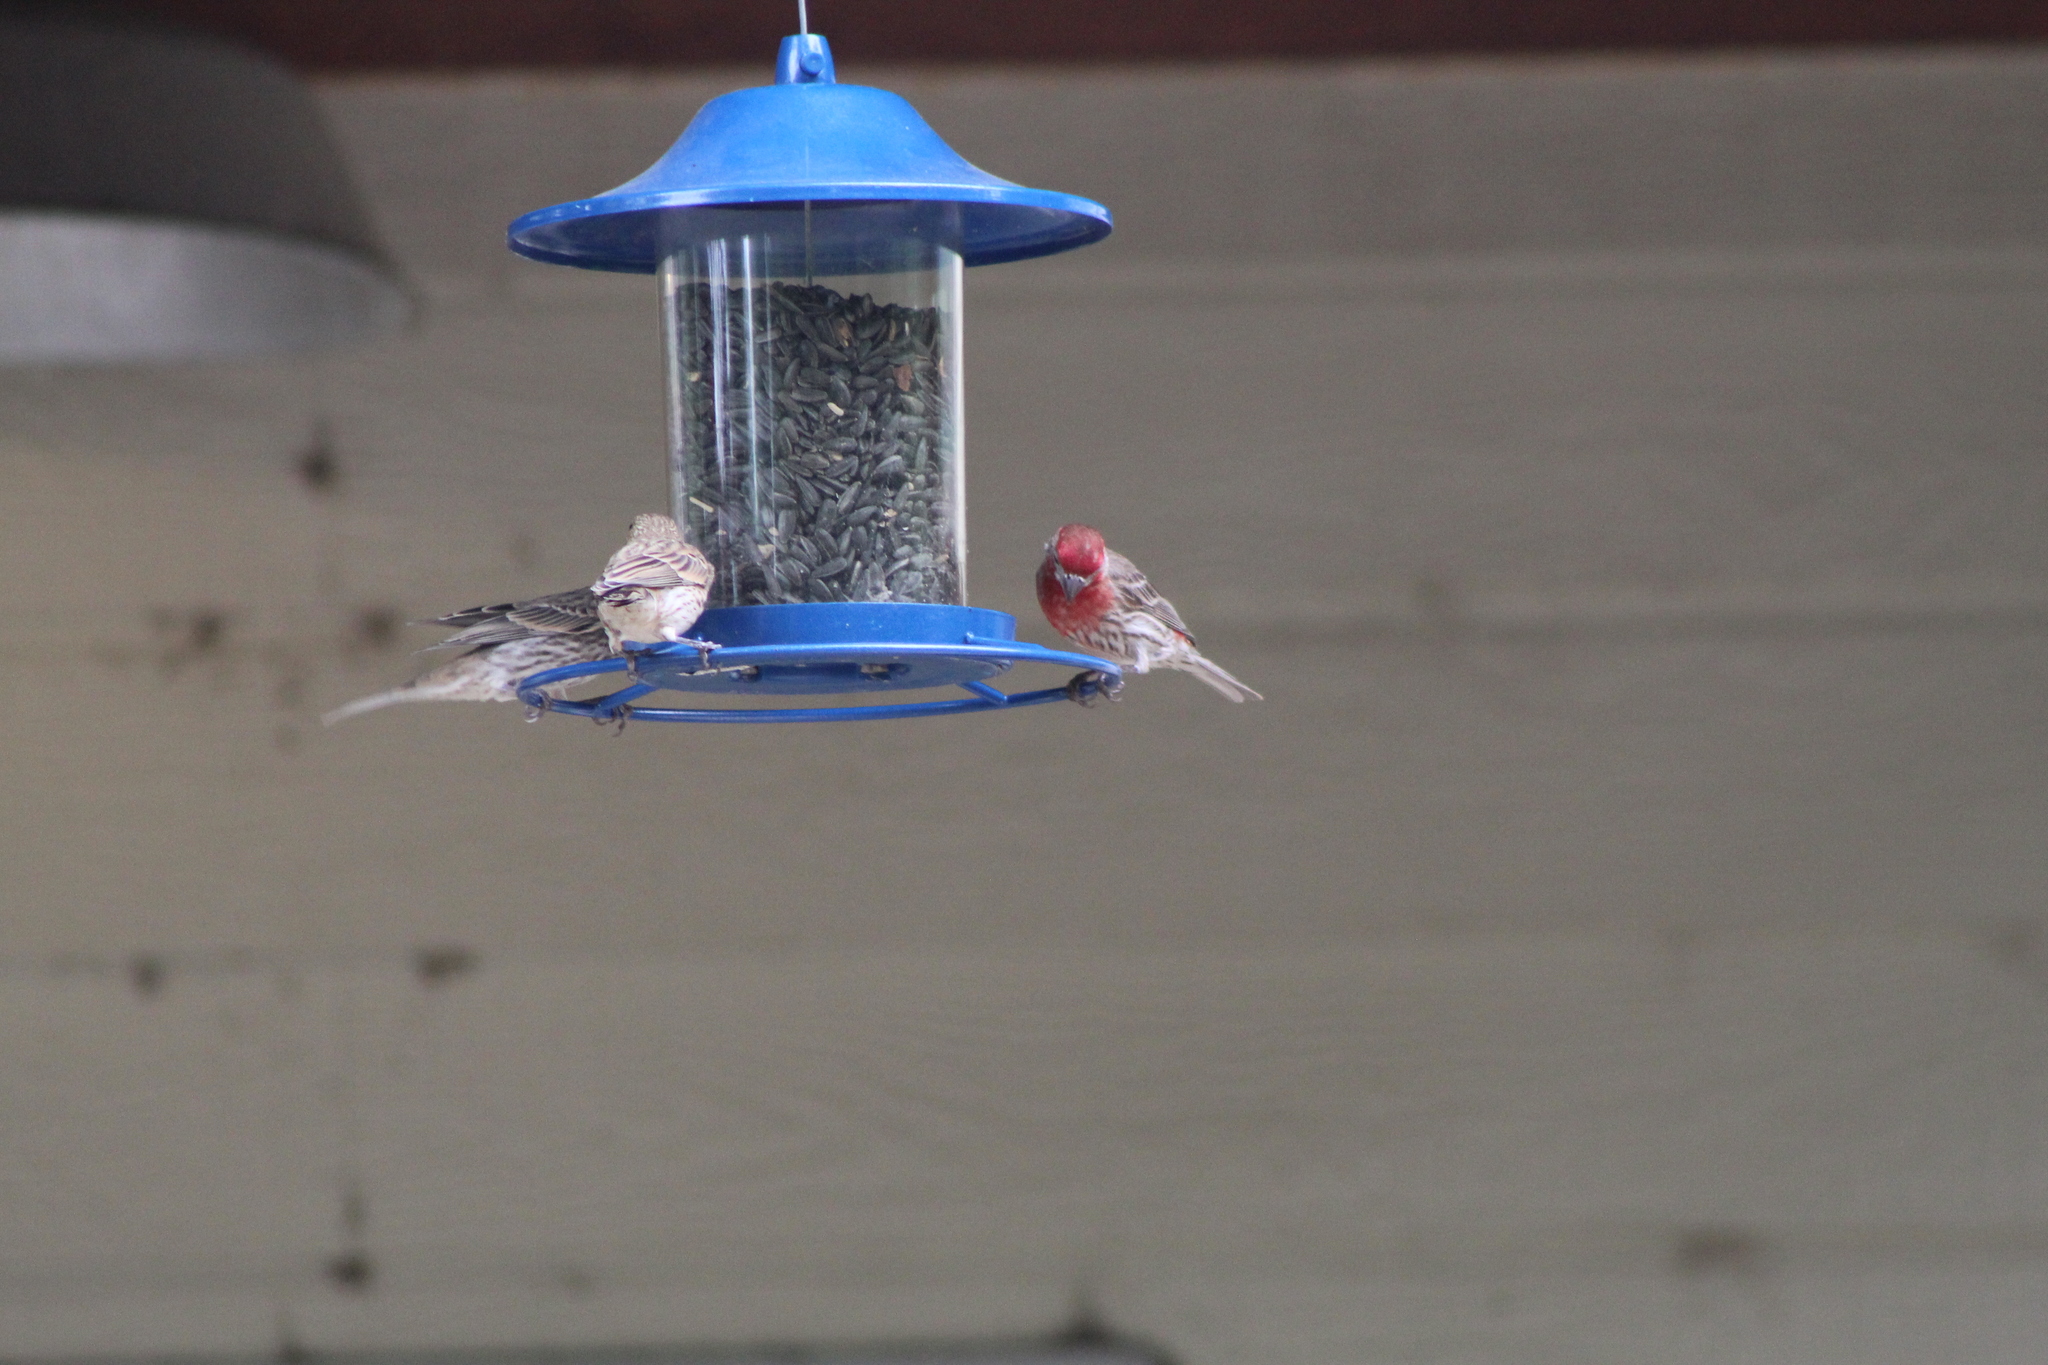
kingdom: Animalia
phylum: Chordata
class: Aves
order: Passeriformes
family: Fringillidae
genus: Haemorhous
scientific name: Haemorhous mexicanus
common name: House finch
